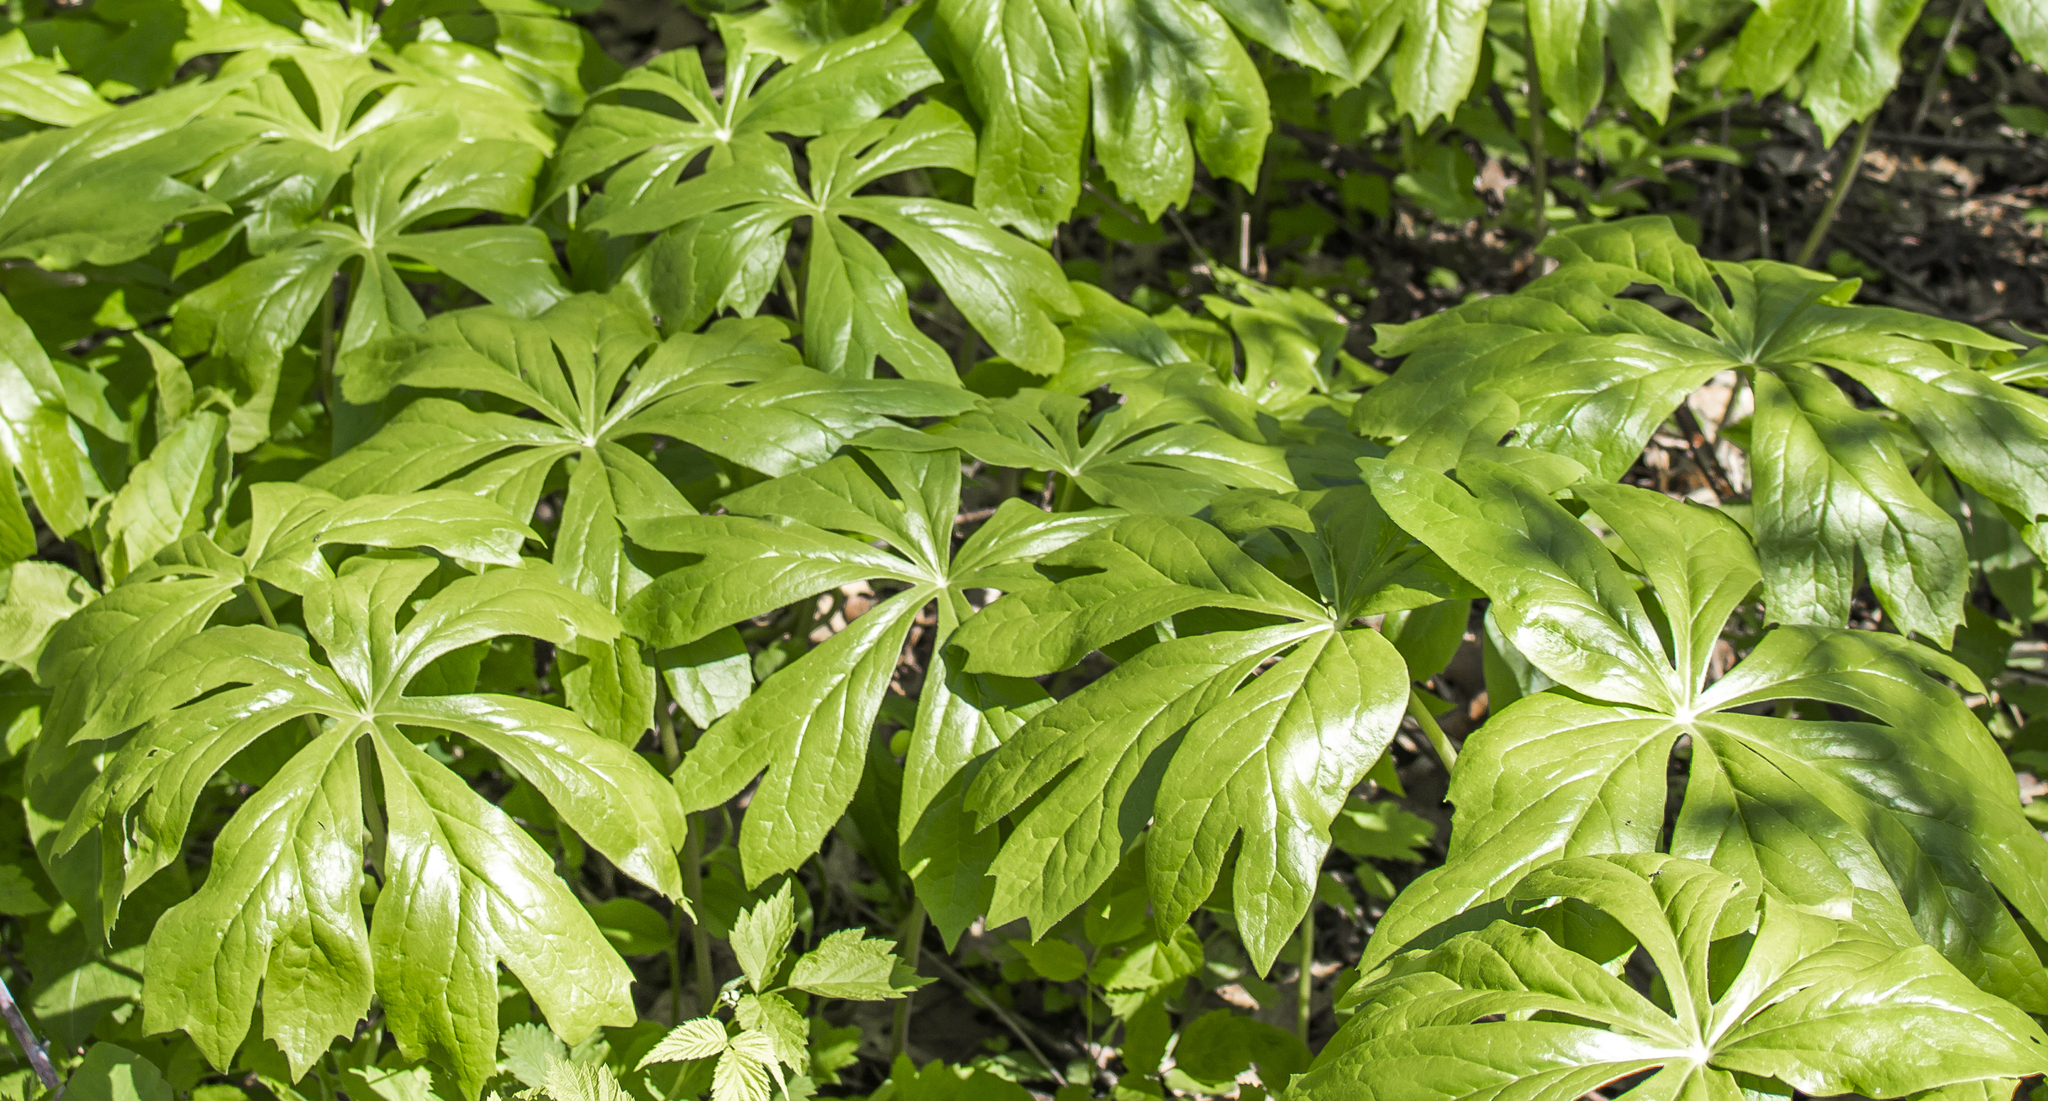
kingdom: Plantae
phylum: Tracheophyta
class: Magnoliopsida
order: Ranunculales
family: Berberidaceae
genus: Podophyllum
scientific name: Podophyllum peltatum
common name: Wild mandrake
